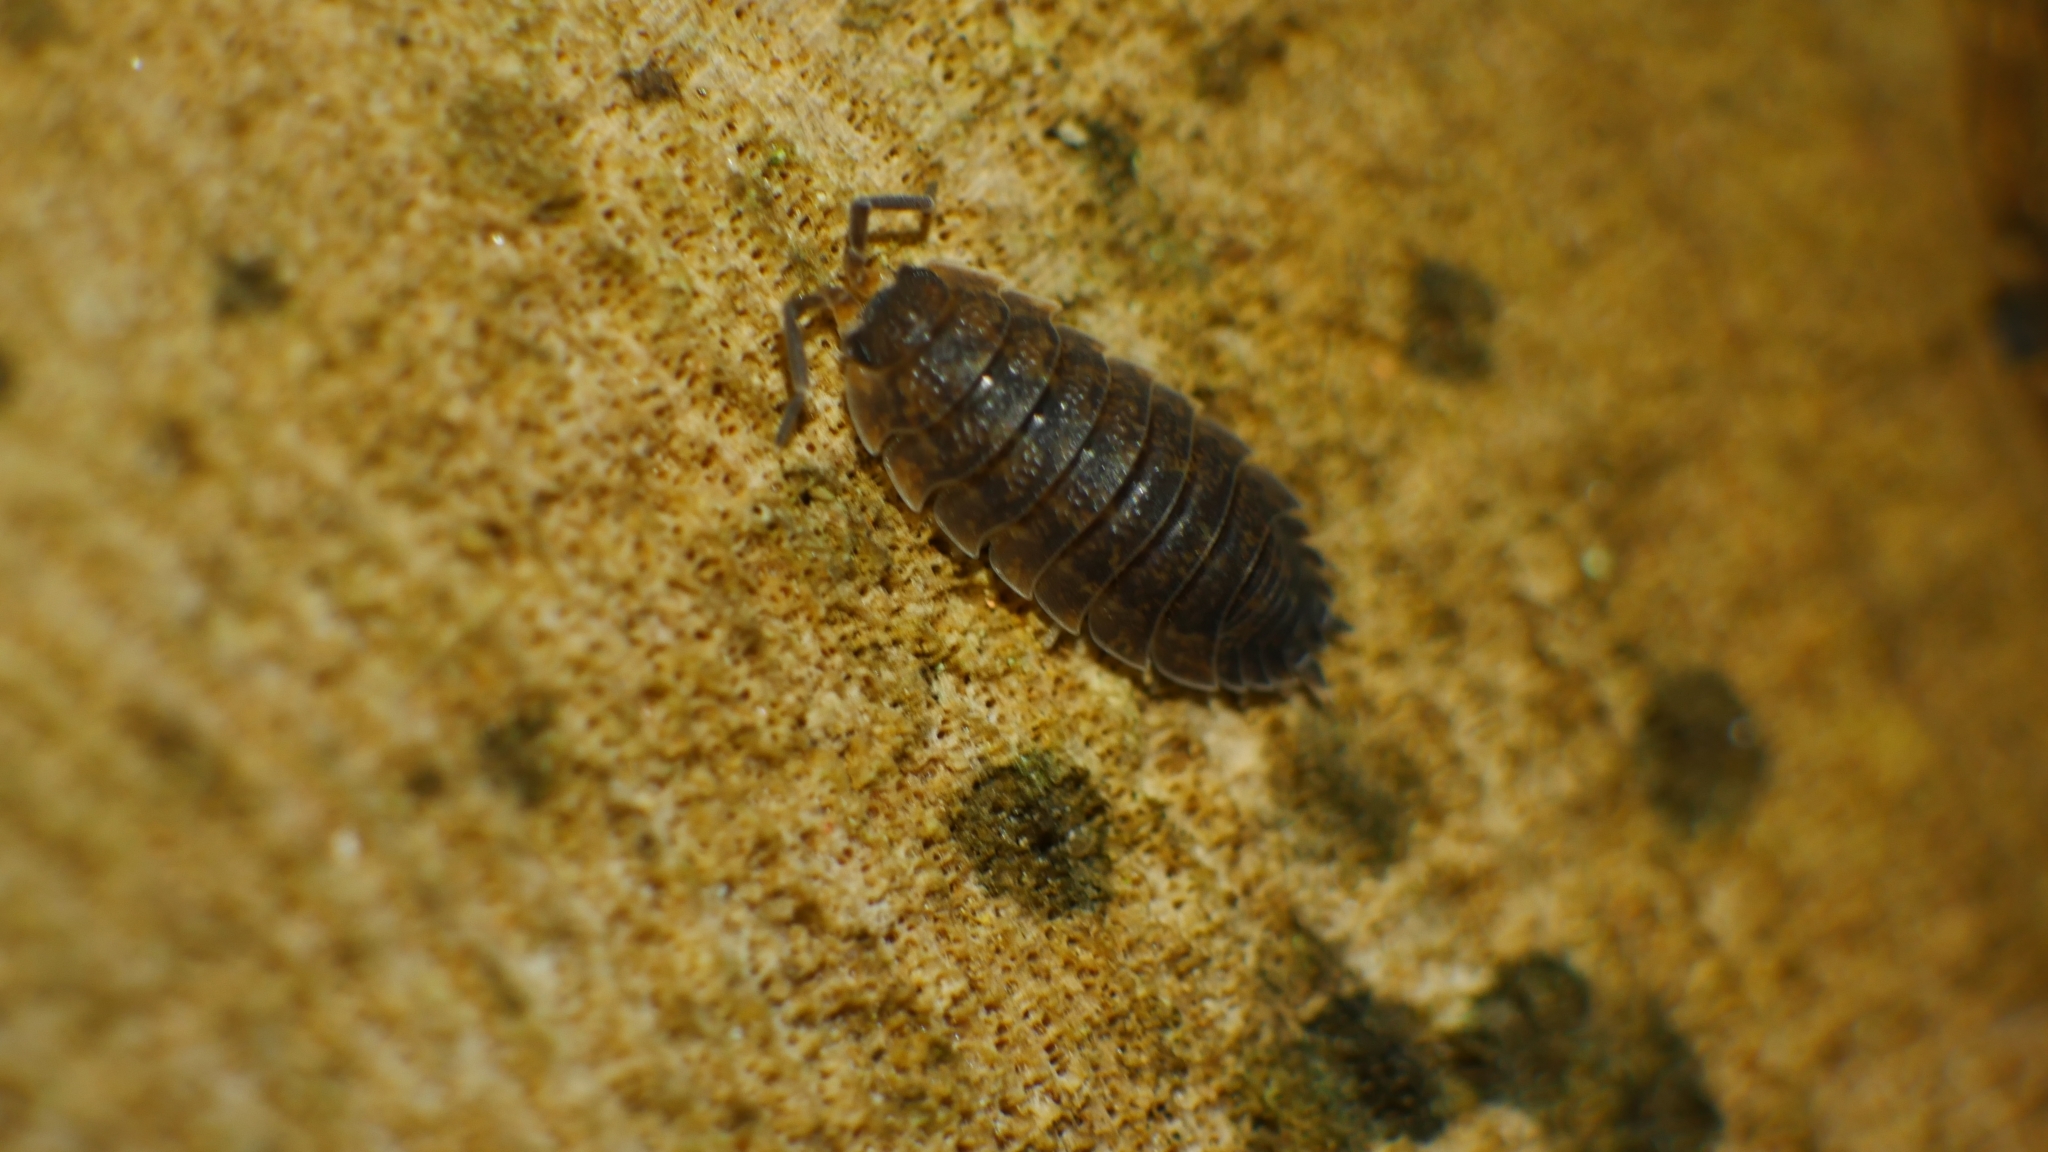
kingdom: Animalia
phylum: Arthropoda
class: Malacostraca
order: Isopoda
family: Porcellionidae
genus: Porcellio
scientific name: Porcellio scaber
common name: Common rough woodlouse
